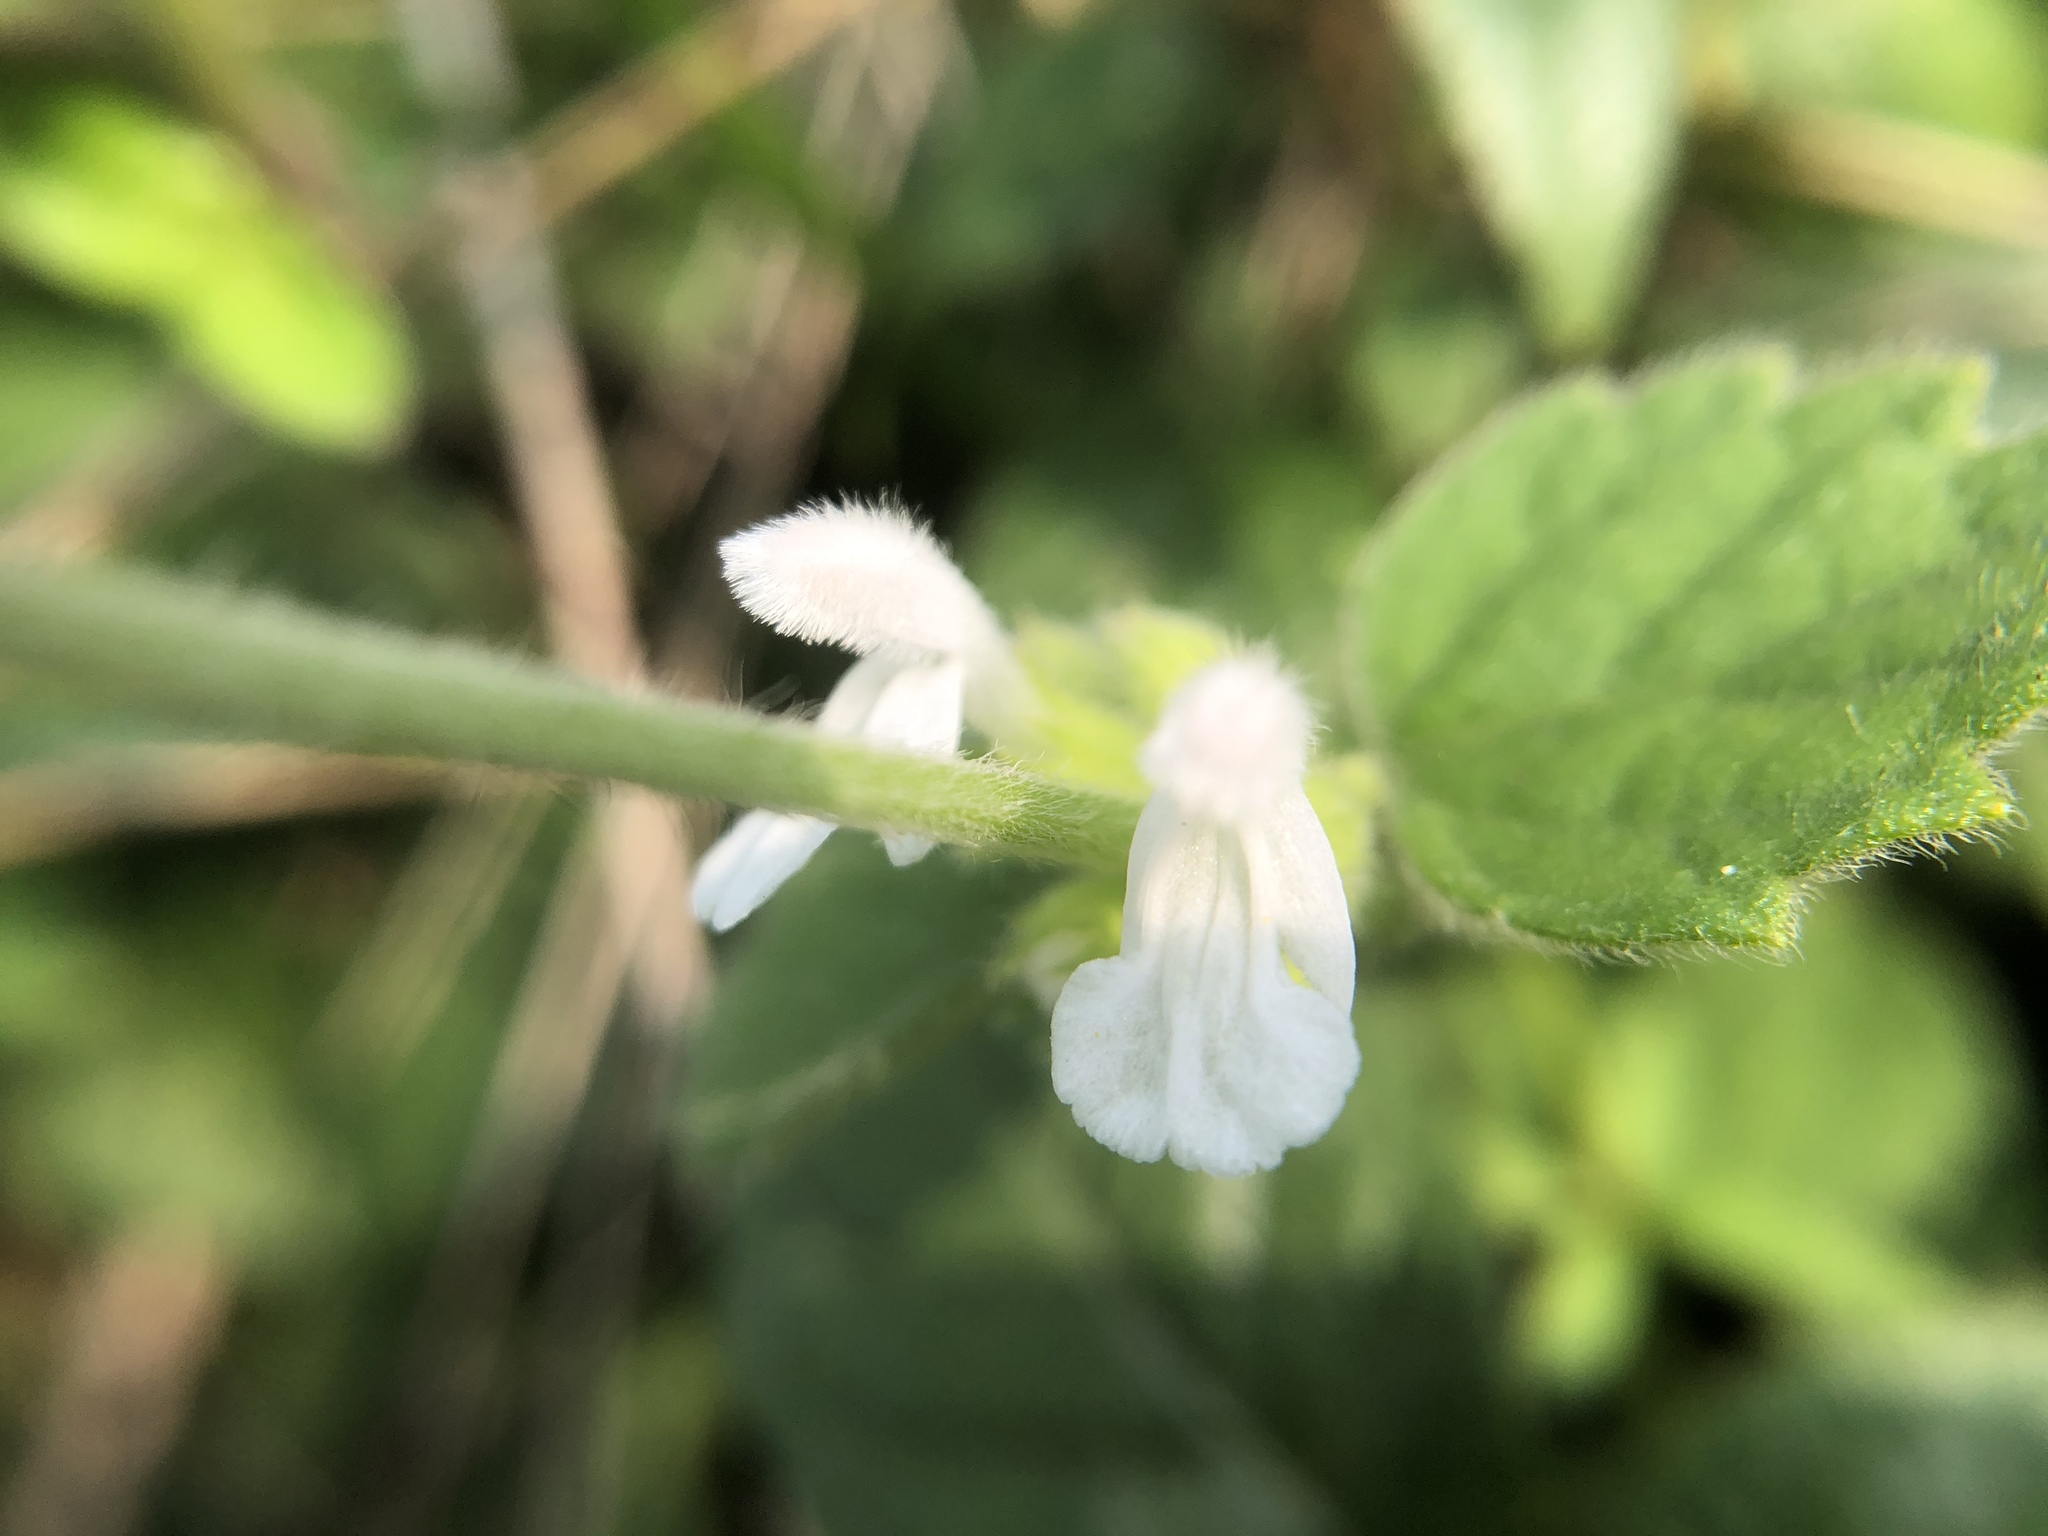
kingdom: Plantae
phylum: Tracheophyta
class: Magnoliopsida
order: Lamiales
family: Lamiaceae
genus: Leucas
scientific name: Leucas chinensis
